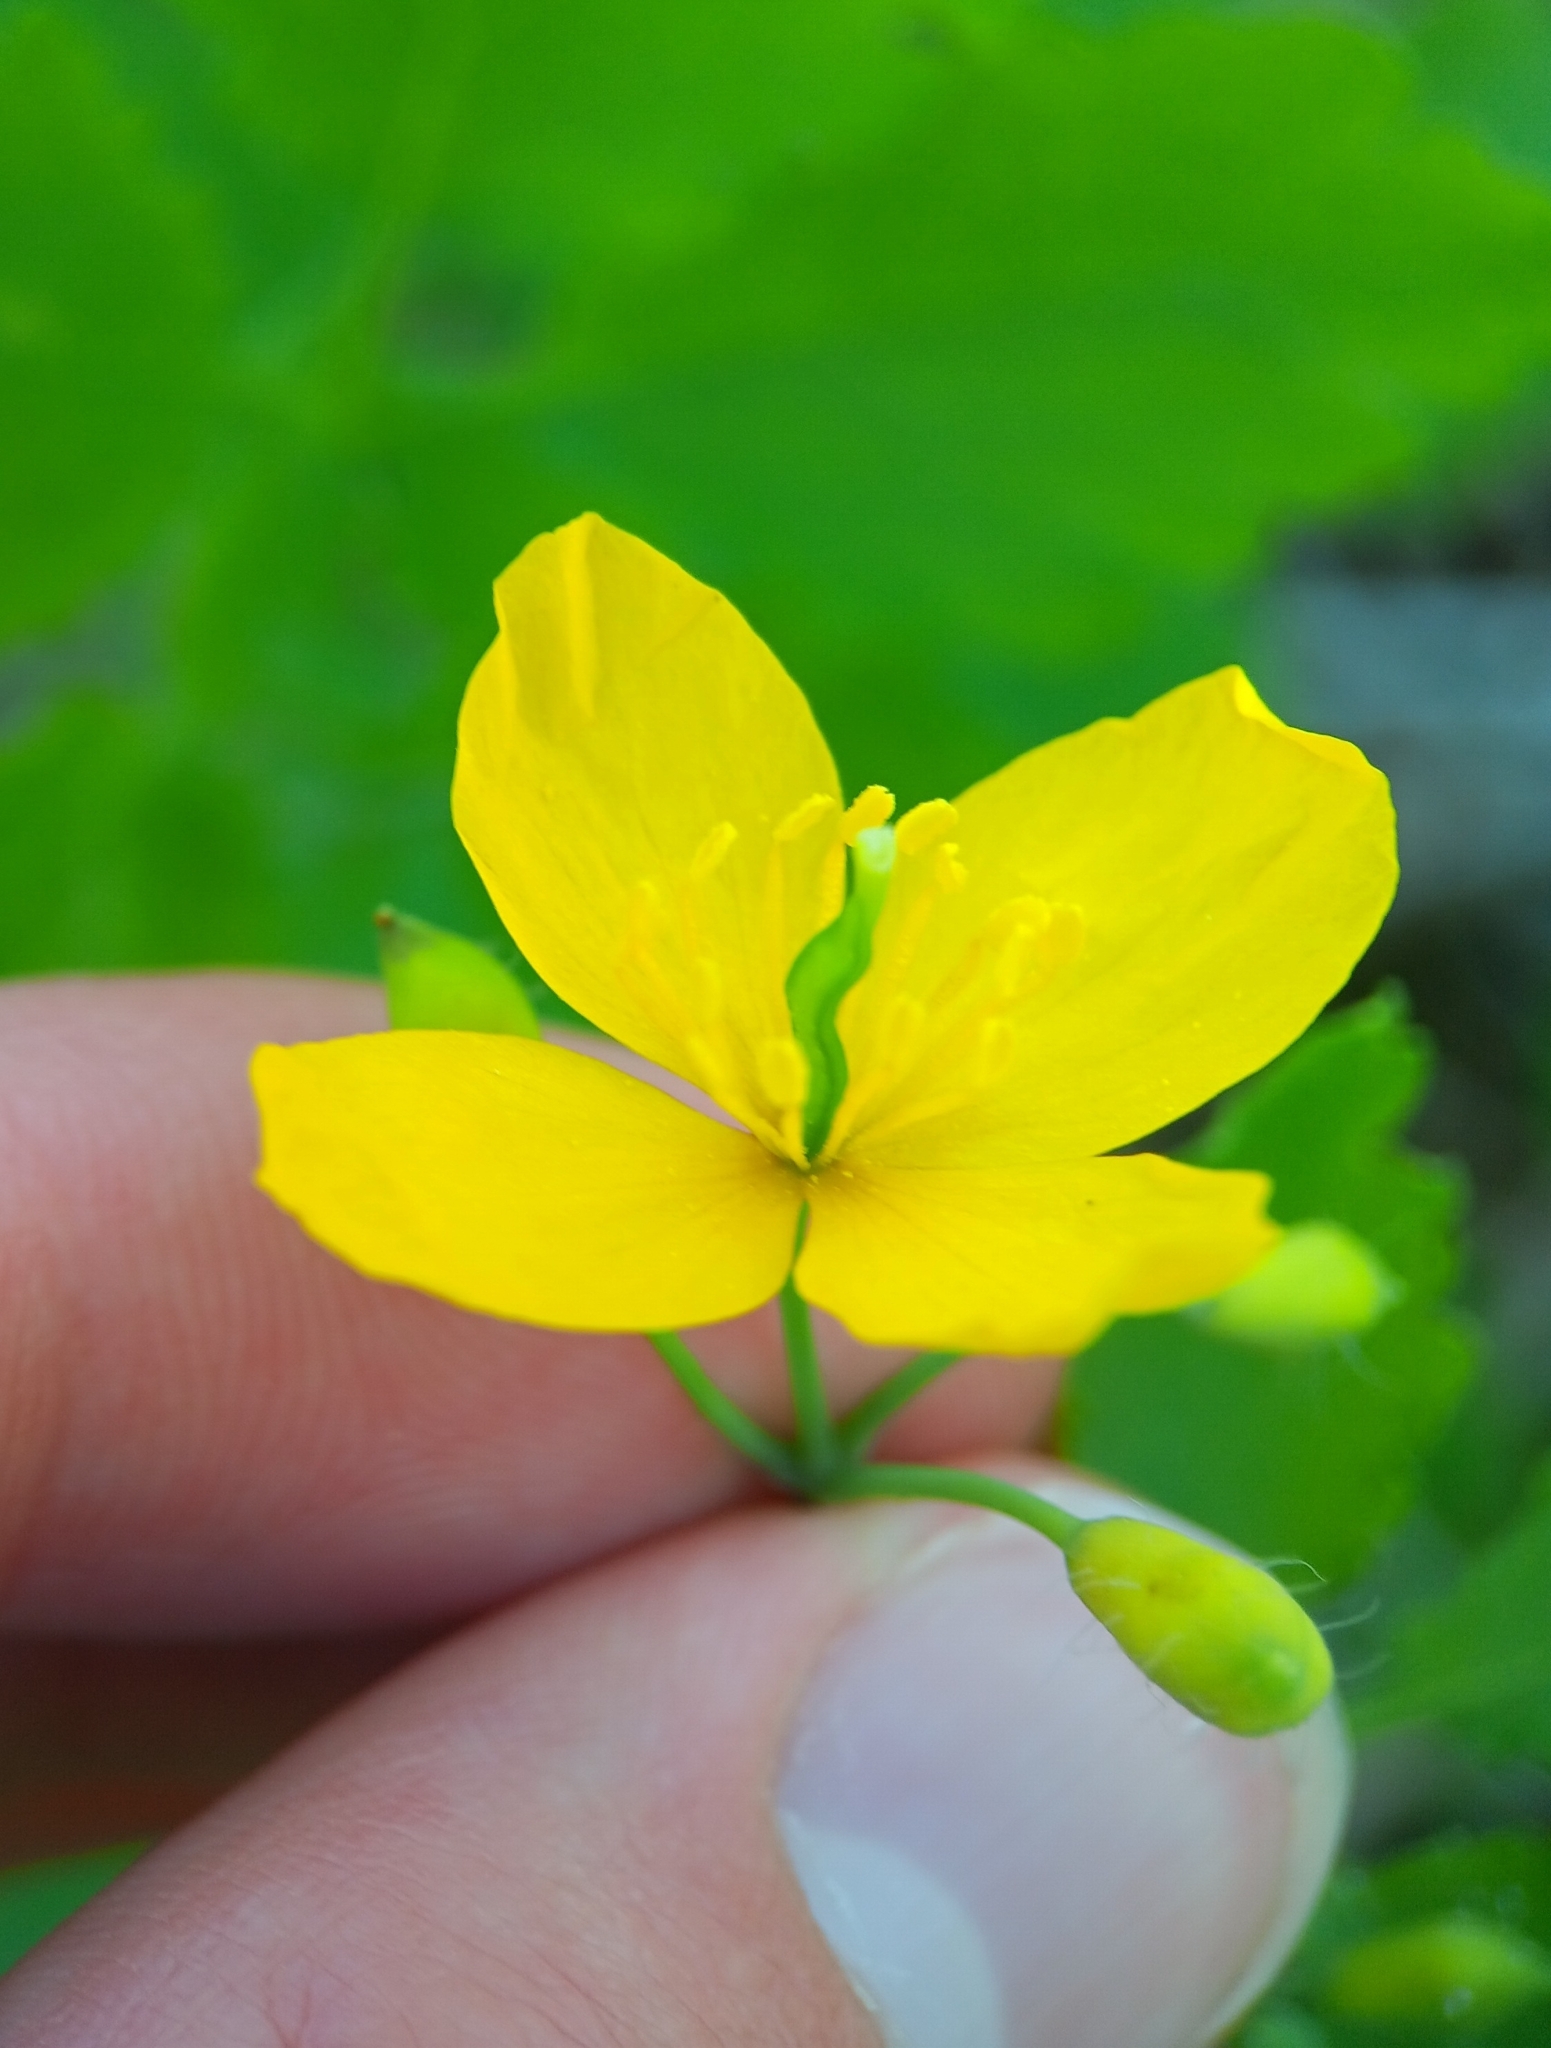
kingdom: Plantae
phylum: Tracheophyta
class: Magnoliopsida
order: Ranunculales
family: Papaveraceae
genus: Chelidonium
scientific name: Chelidonium majus
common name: Greater celandine
